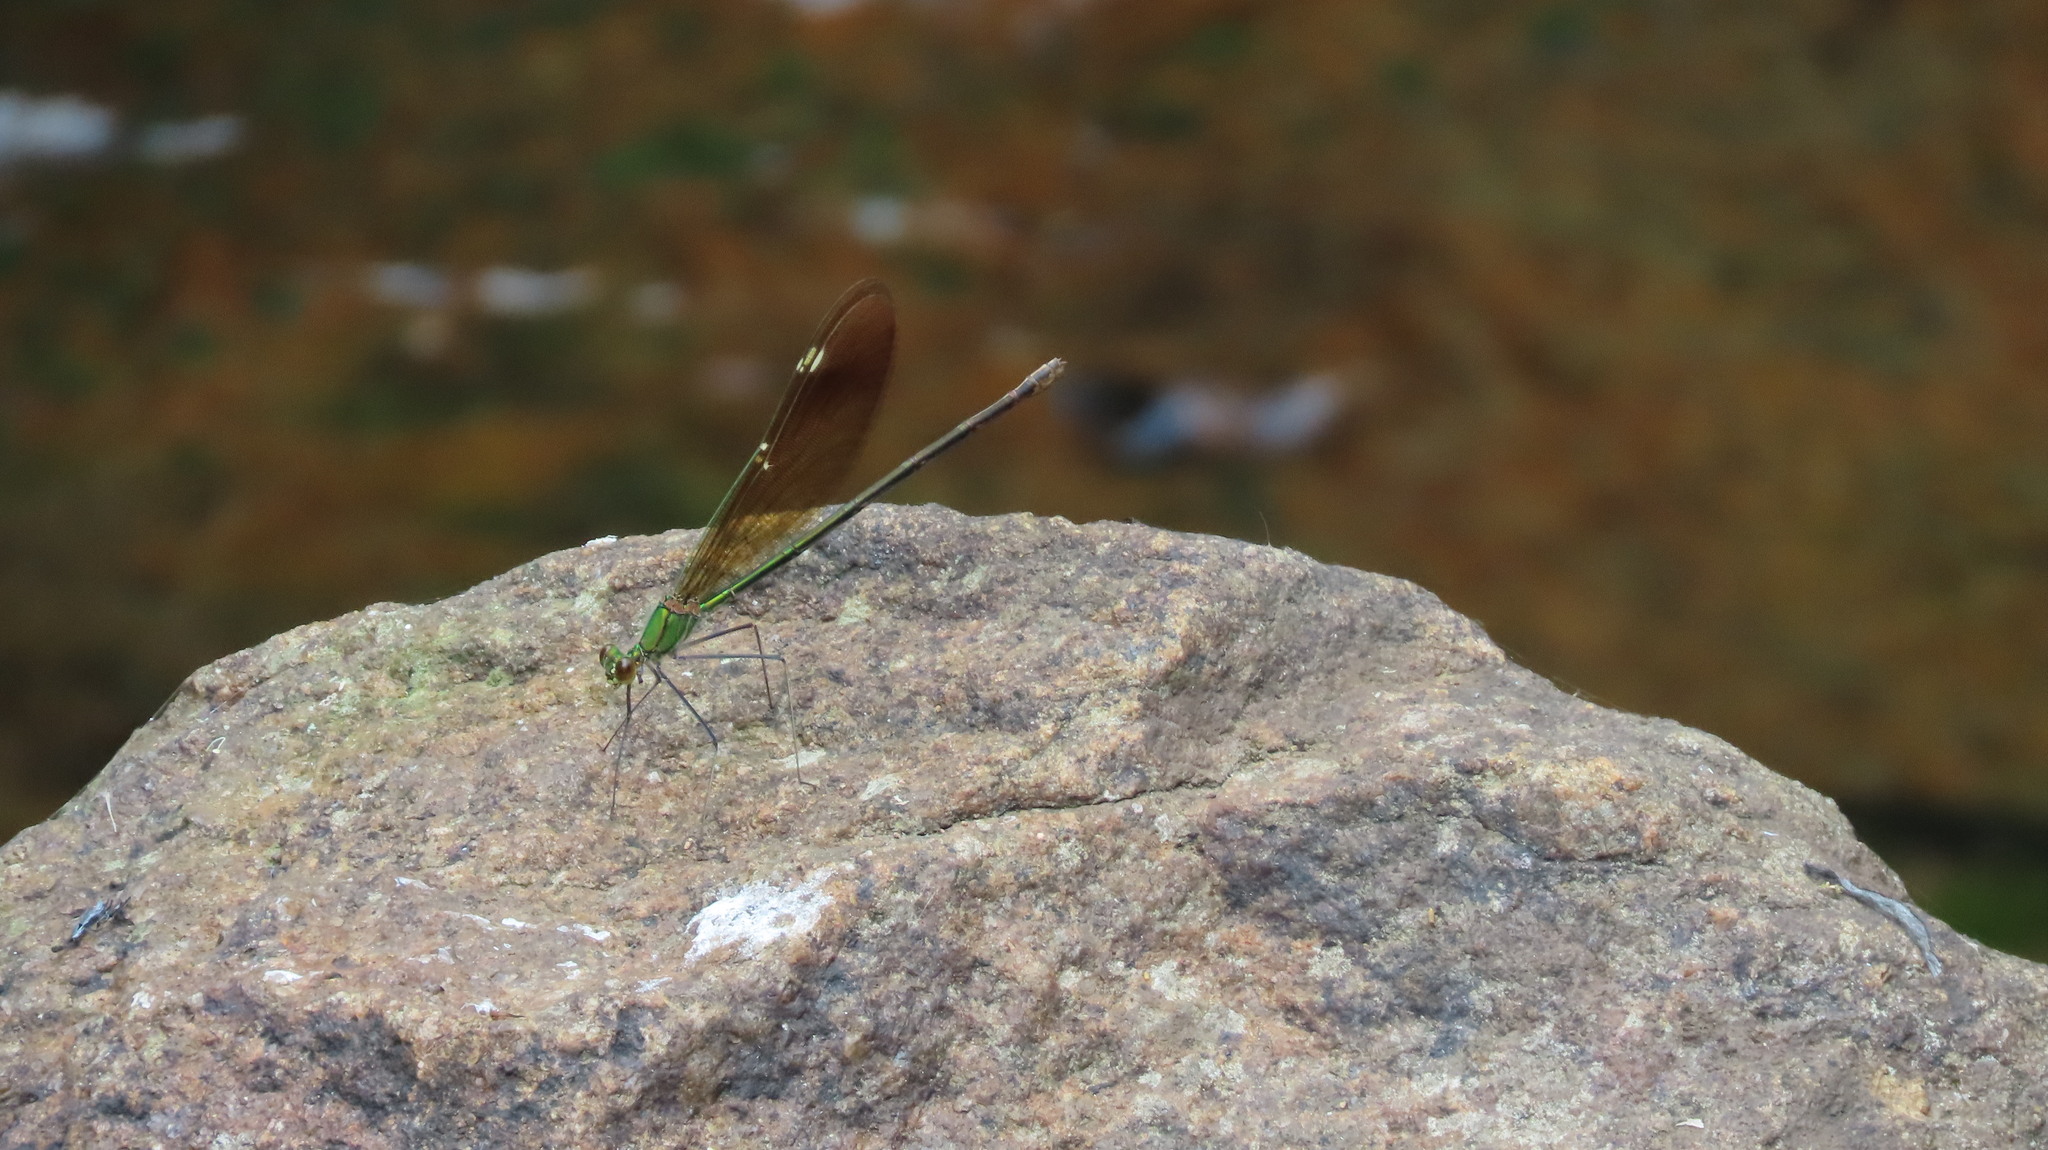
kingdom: Animalia
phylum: Arthropoda
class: Insecta
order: Odonata
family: Calopterygidae
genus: Neurobasis
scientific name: Neurobasis chinensis
